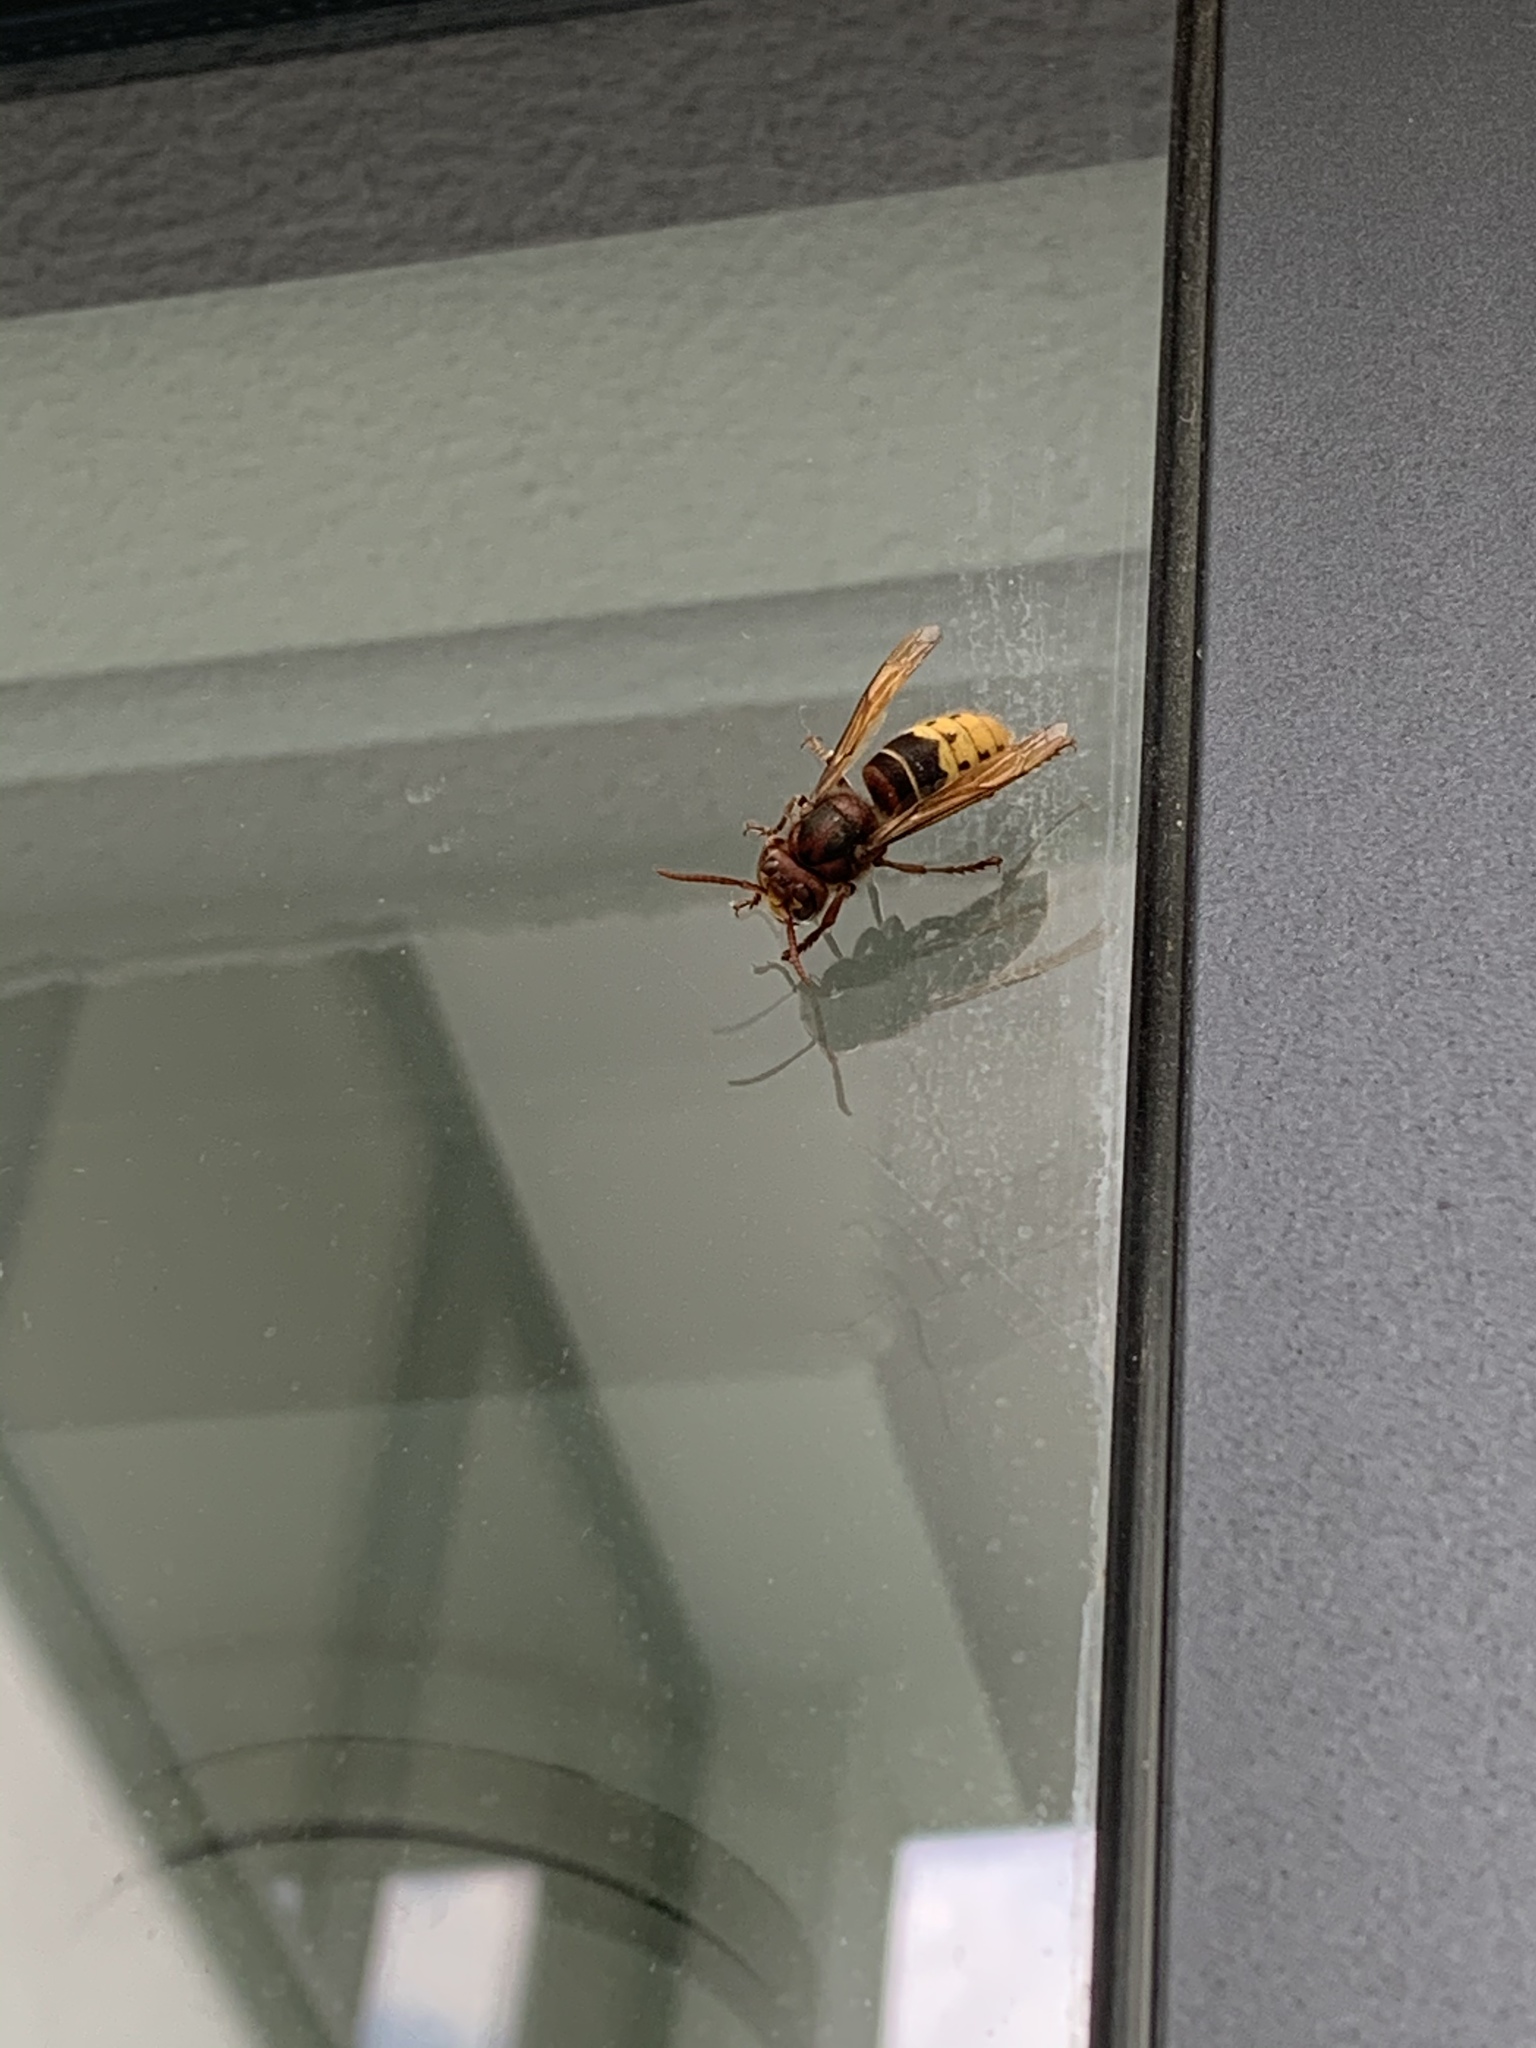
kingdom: Animalia
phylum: Arthropoda
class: Insecta
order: Hymenoptera
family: Vespidae
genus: Vespa
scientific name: Vespa crabro
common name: Hornet
